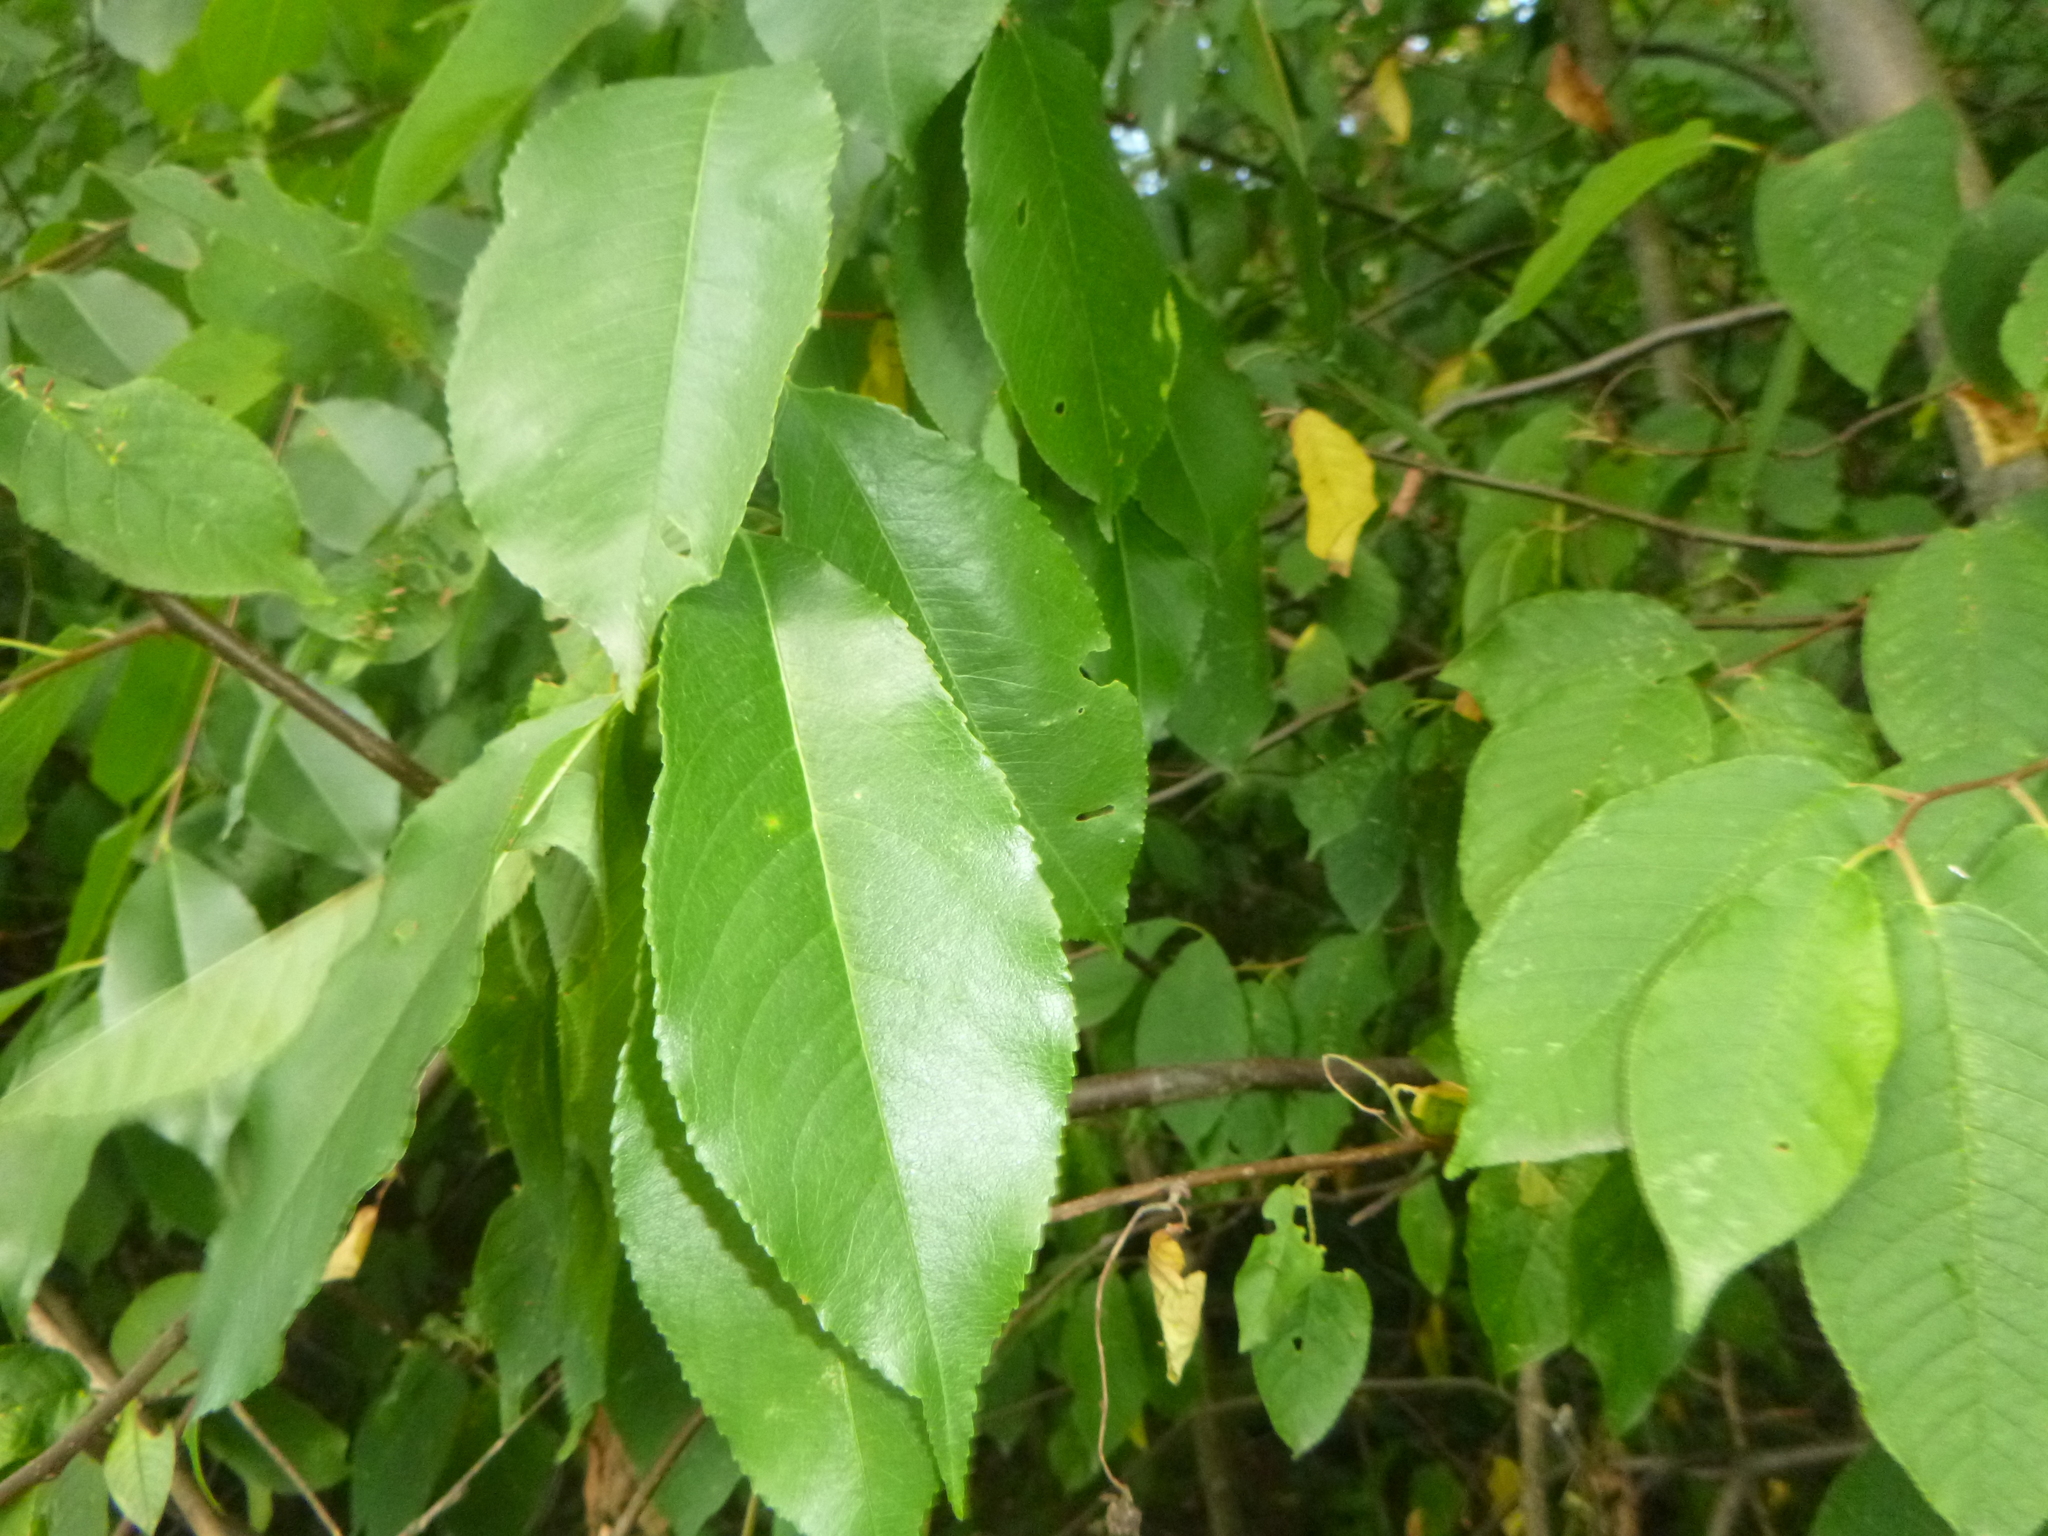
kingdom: Plantae
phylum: Tracheophyta
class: Magnoliopsida
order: Rosales
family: Rosaceae
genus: Prunus
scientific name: Prunus serotina
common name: Black cherry
